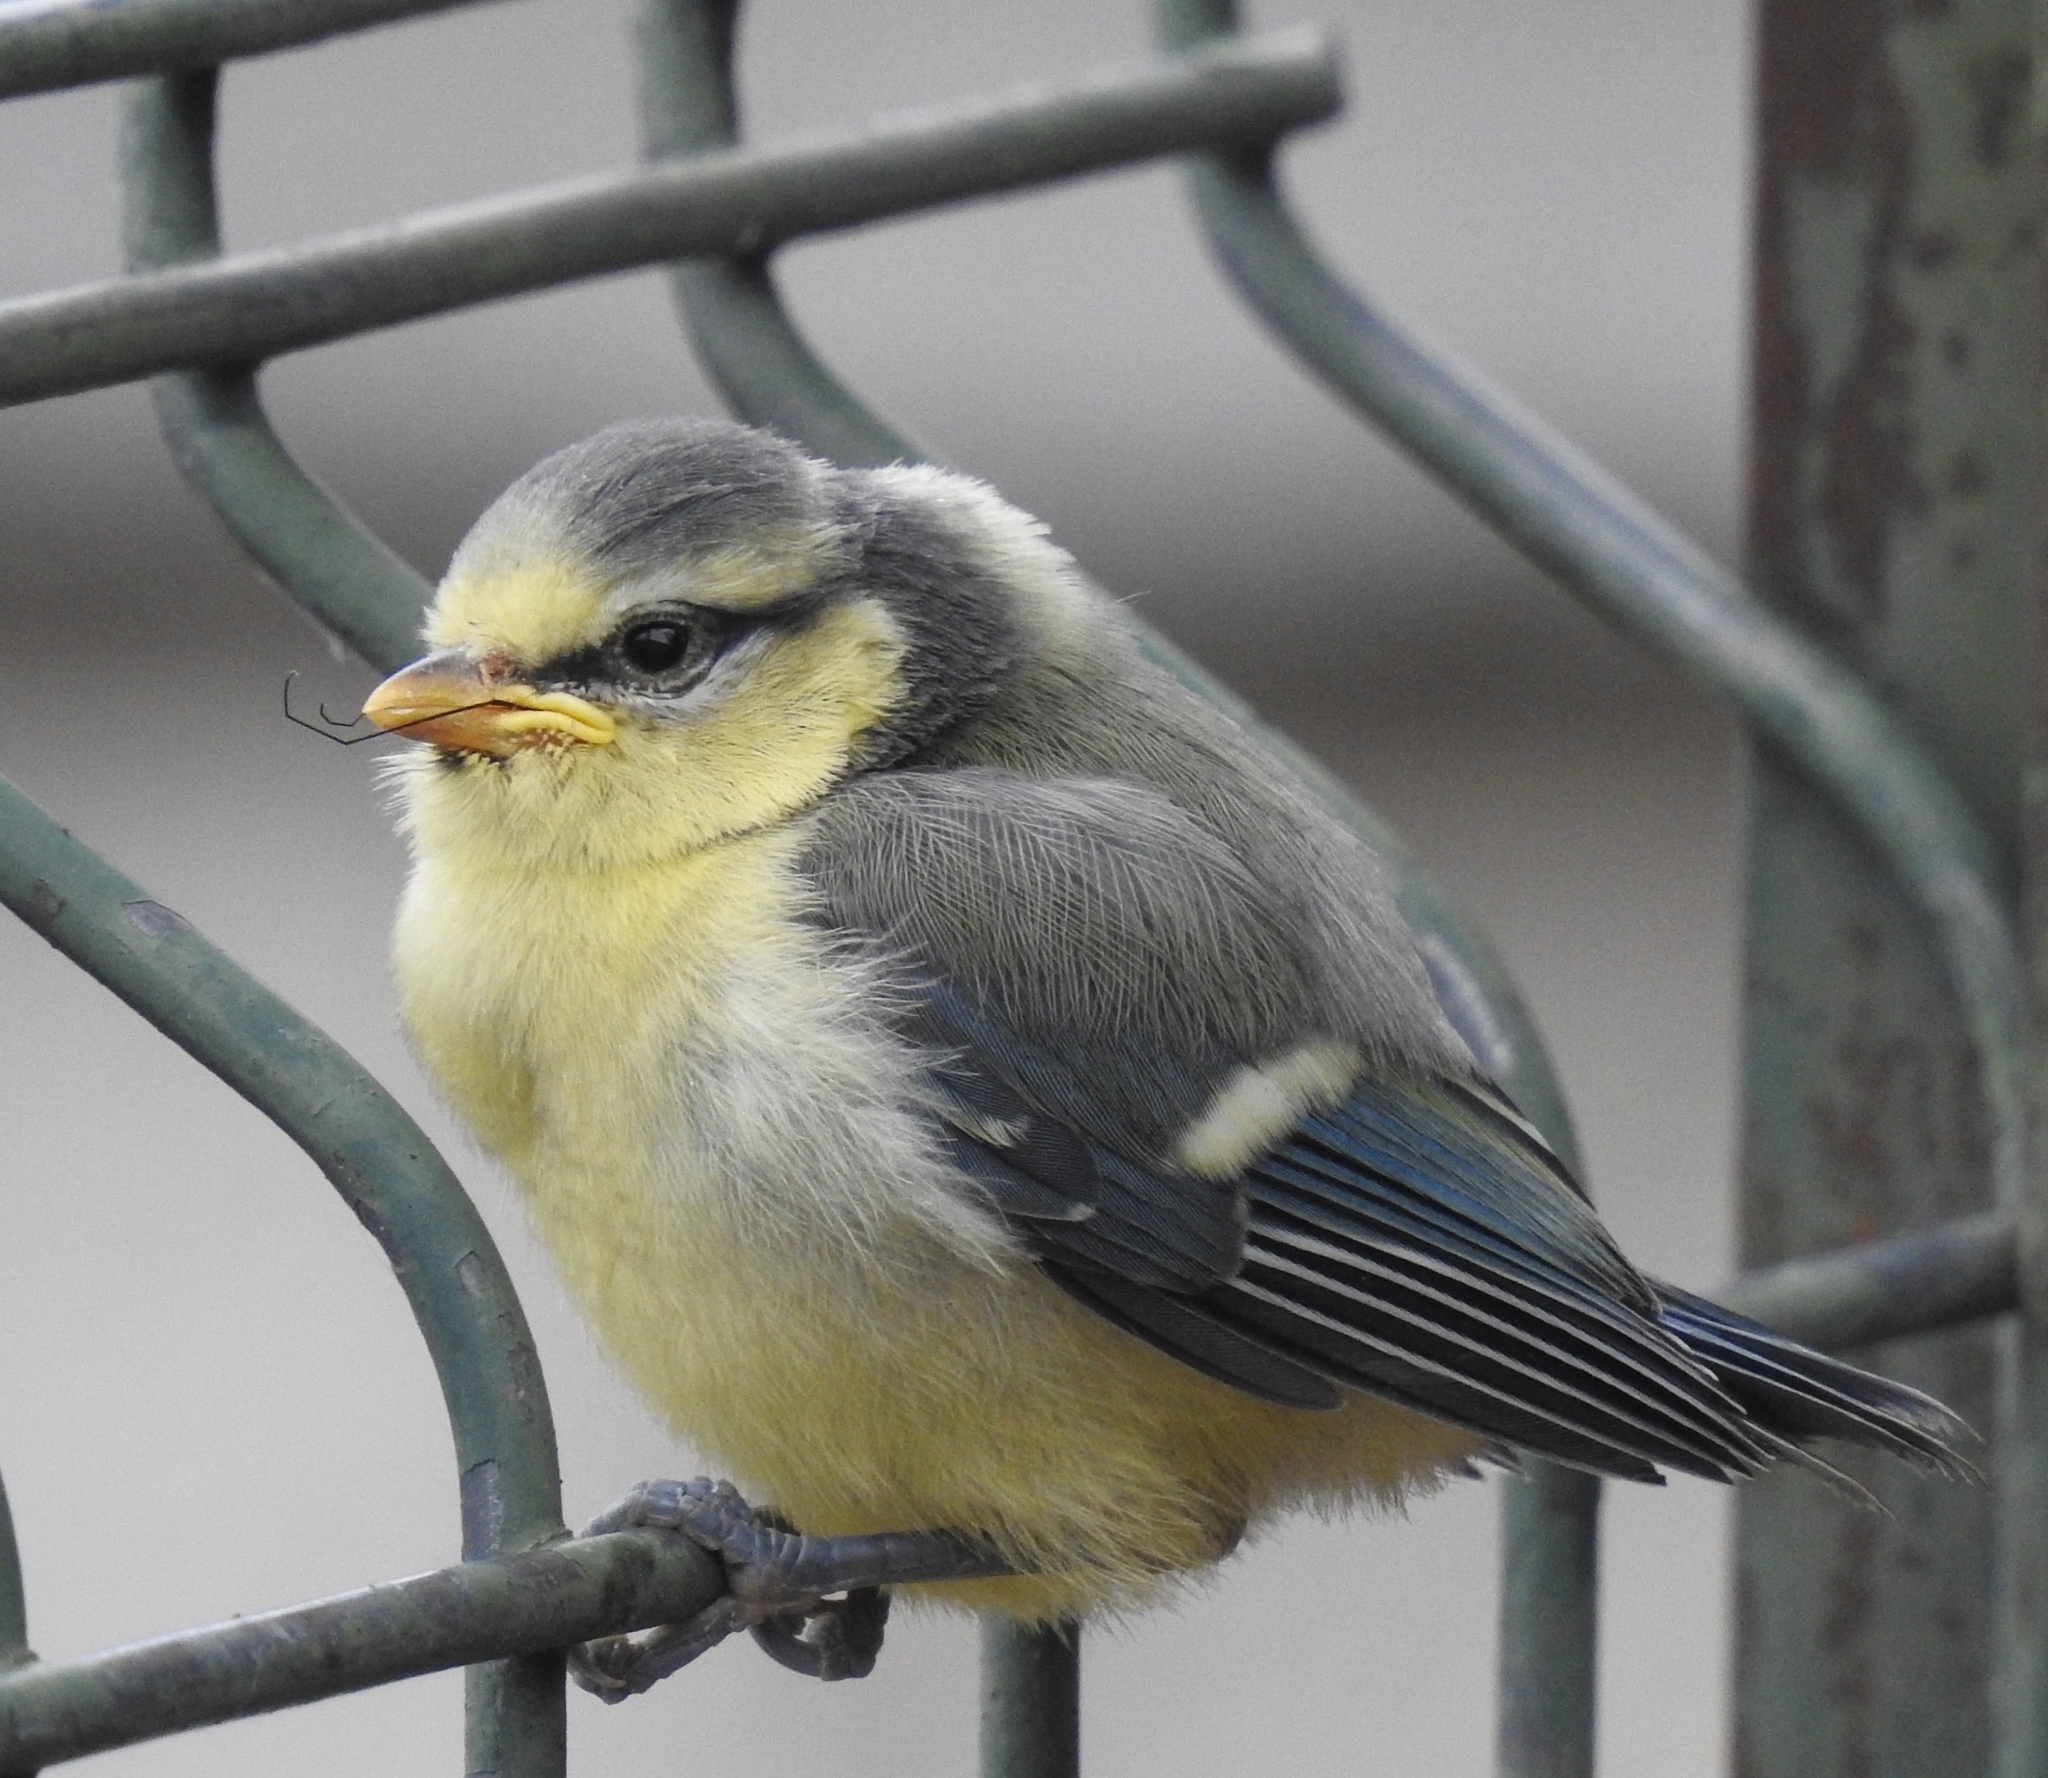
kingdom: Animalia
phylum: Chordata
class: Aves
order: Passeriformes
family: Paridae
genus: Cyanistes
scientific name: Cyanistes caeruleus
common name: Eurasian blue tit
